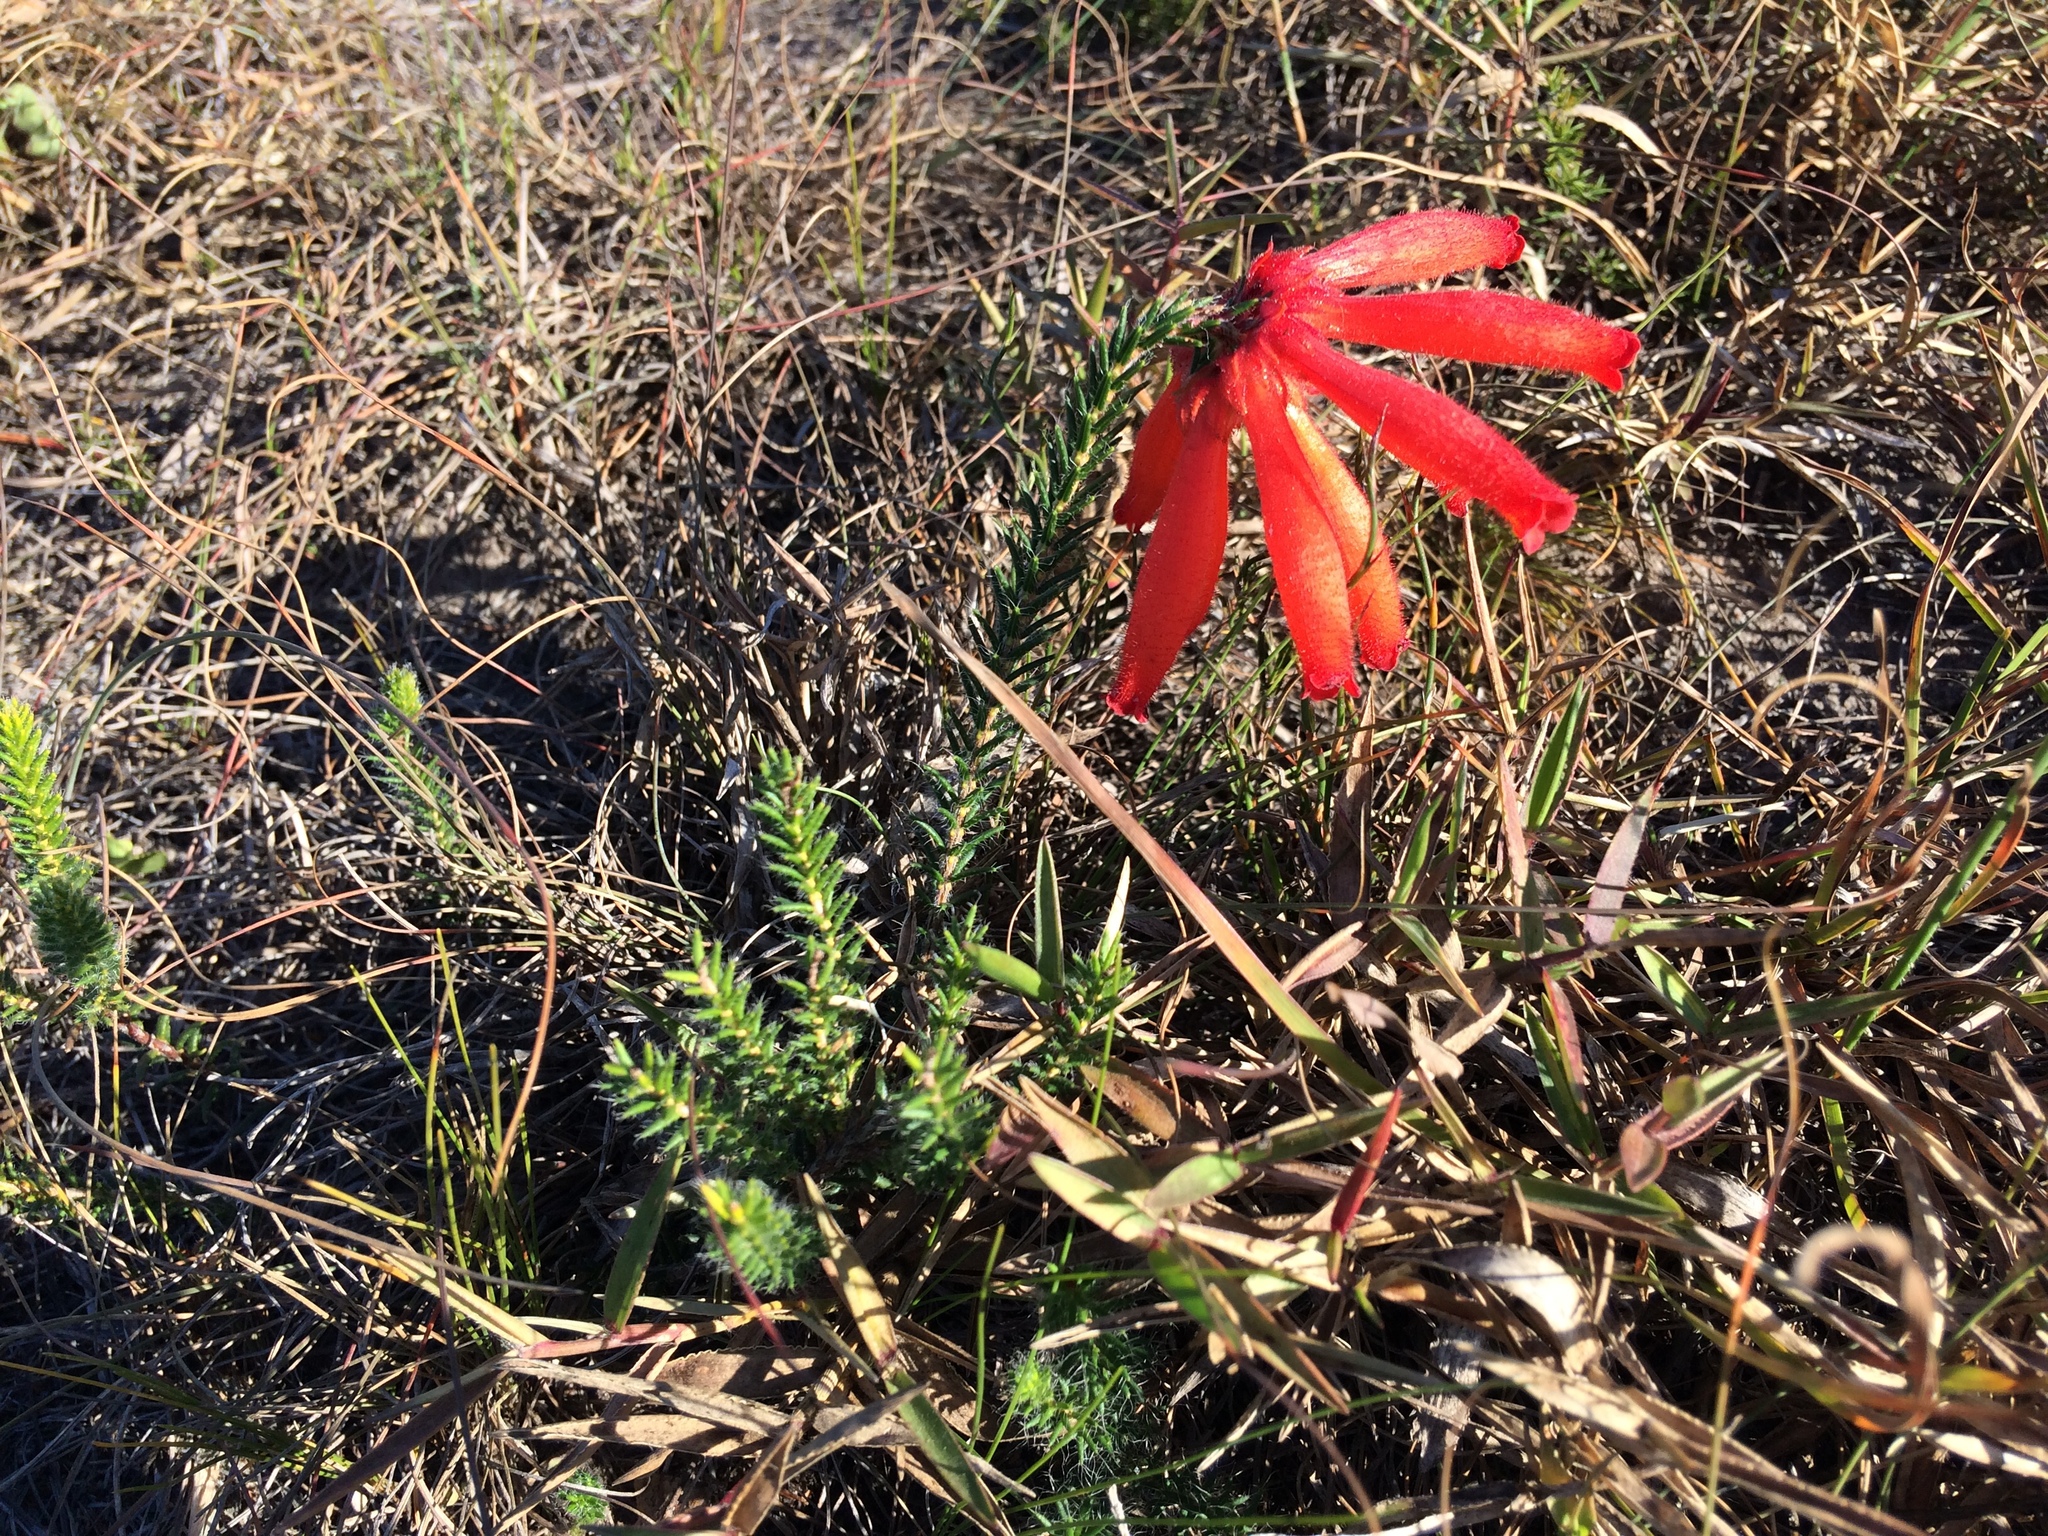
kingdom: Plantae
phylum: Tracheophyta
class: Magnoliopsida
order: Ericales
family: Ericaceae
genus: Erica
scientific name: Erica cerinthoides
